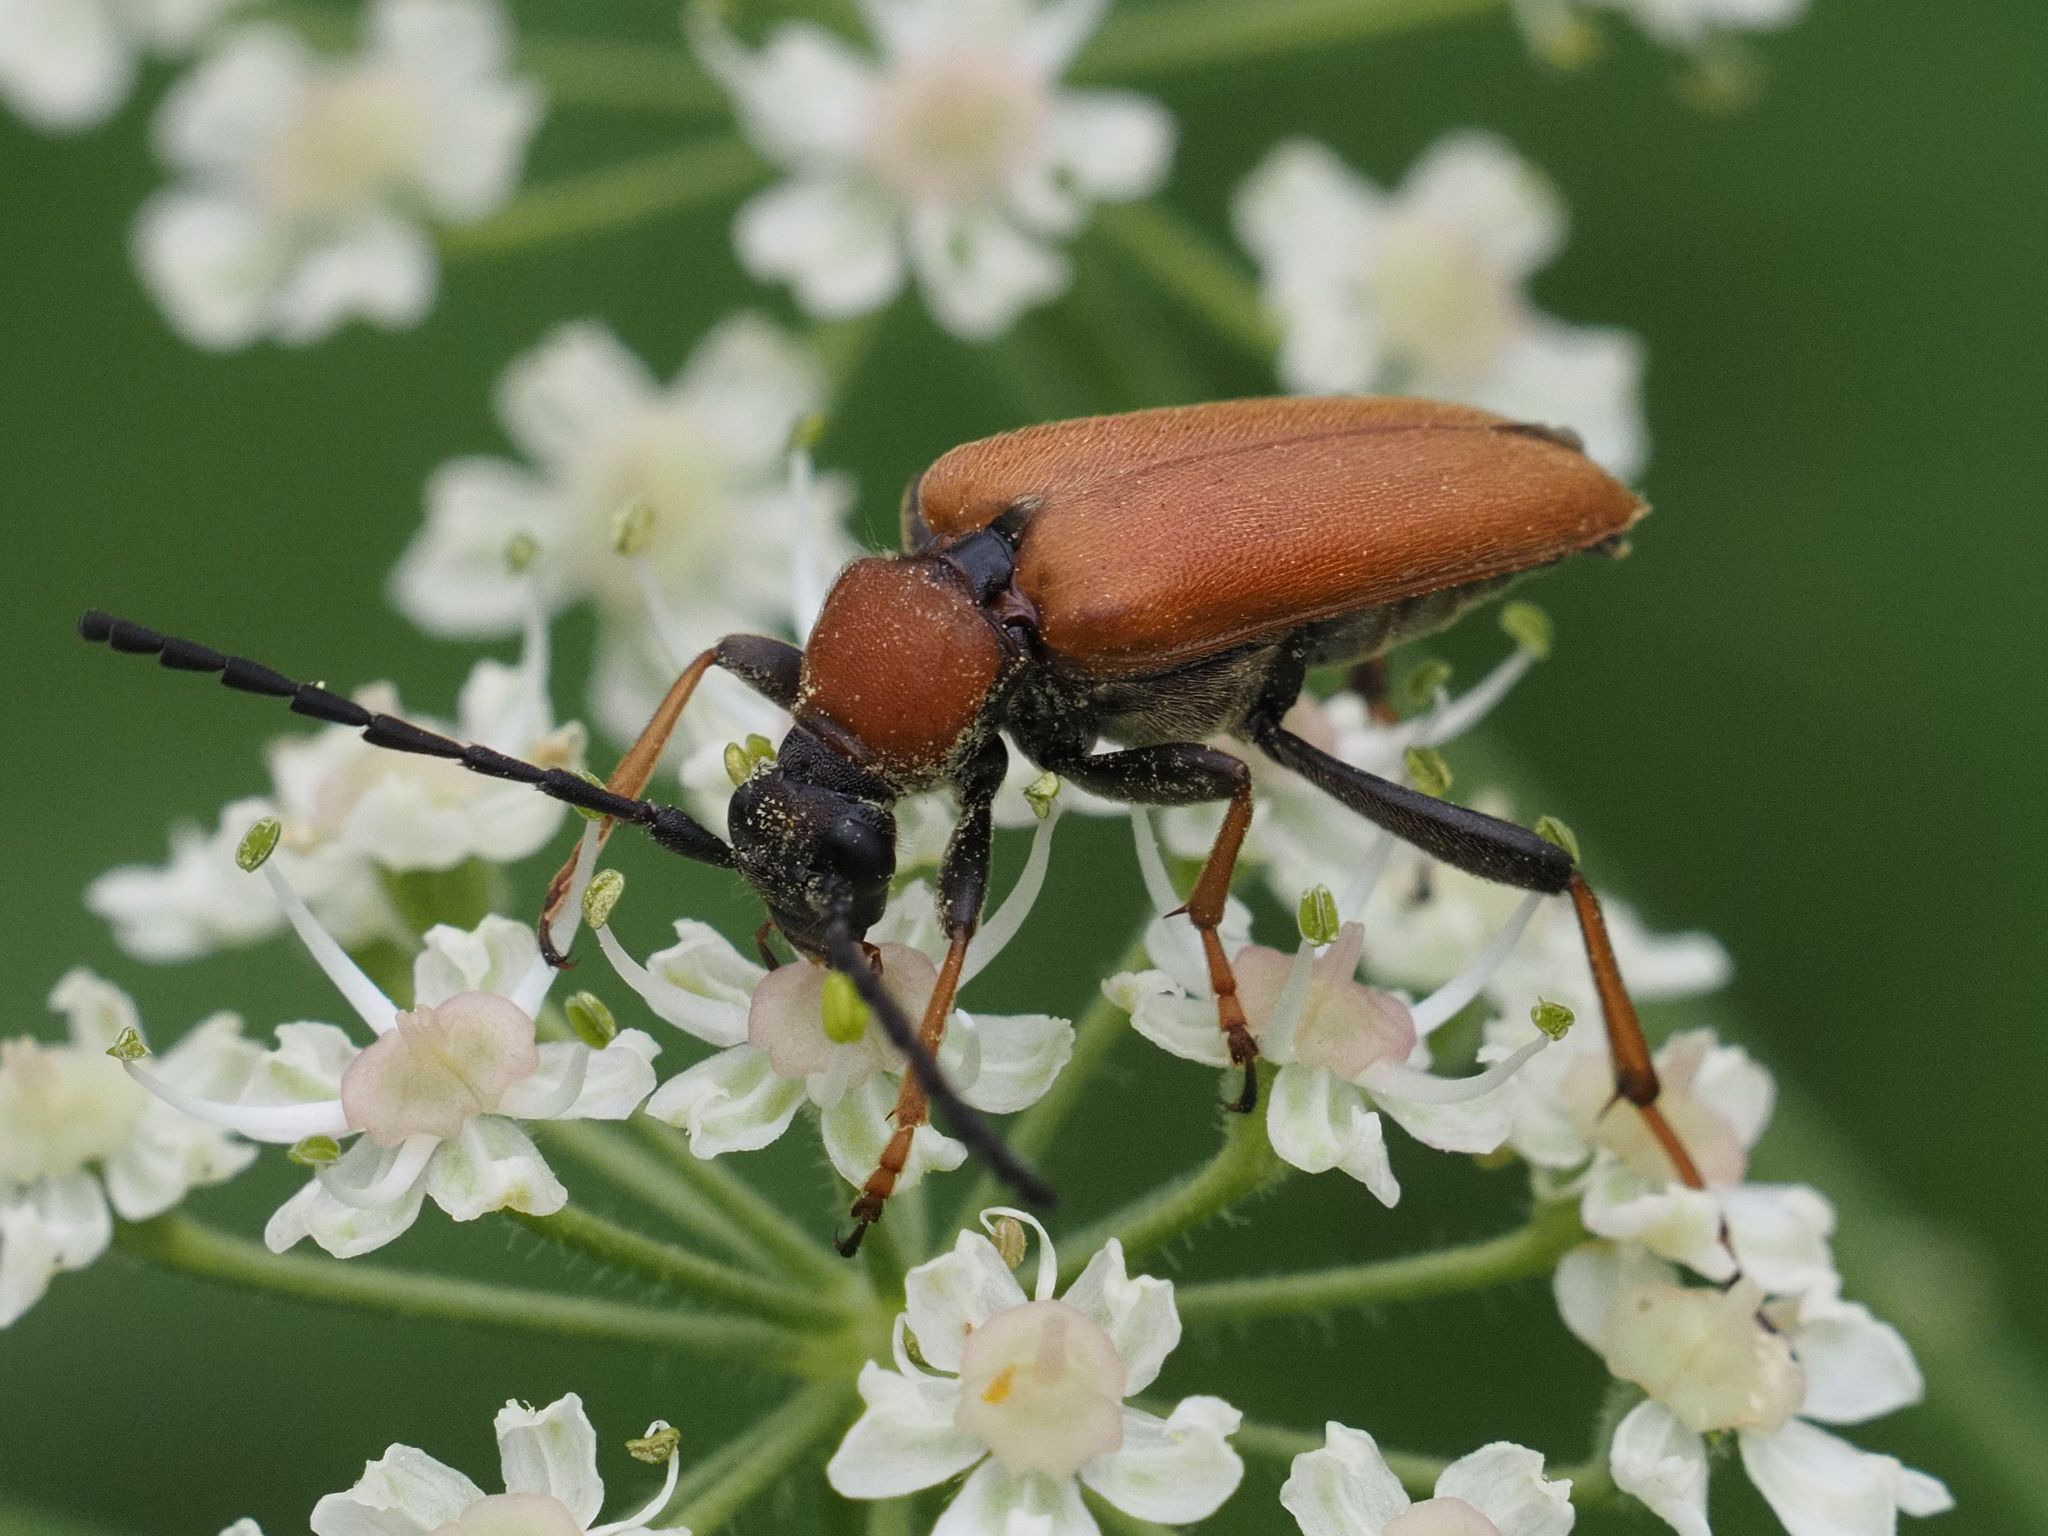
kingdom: Animalia
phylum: Arthropoda
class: Insecta
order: Coleoptera
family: Cerambycidae
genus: Stictoleptura
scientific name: Stictoleptura rubra
